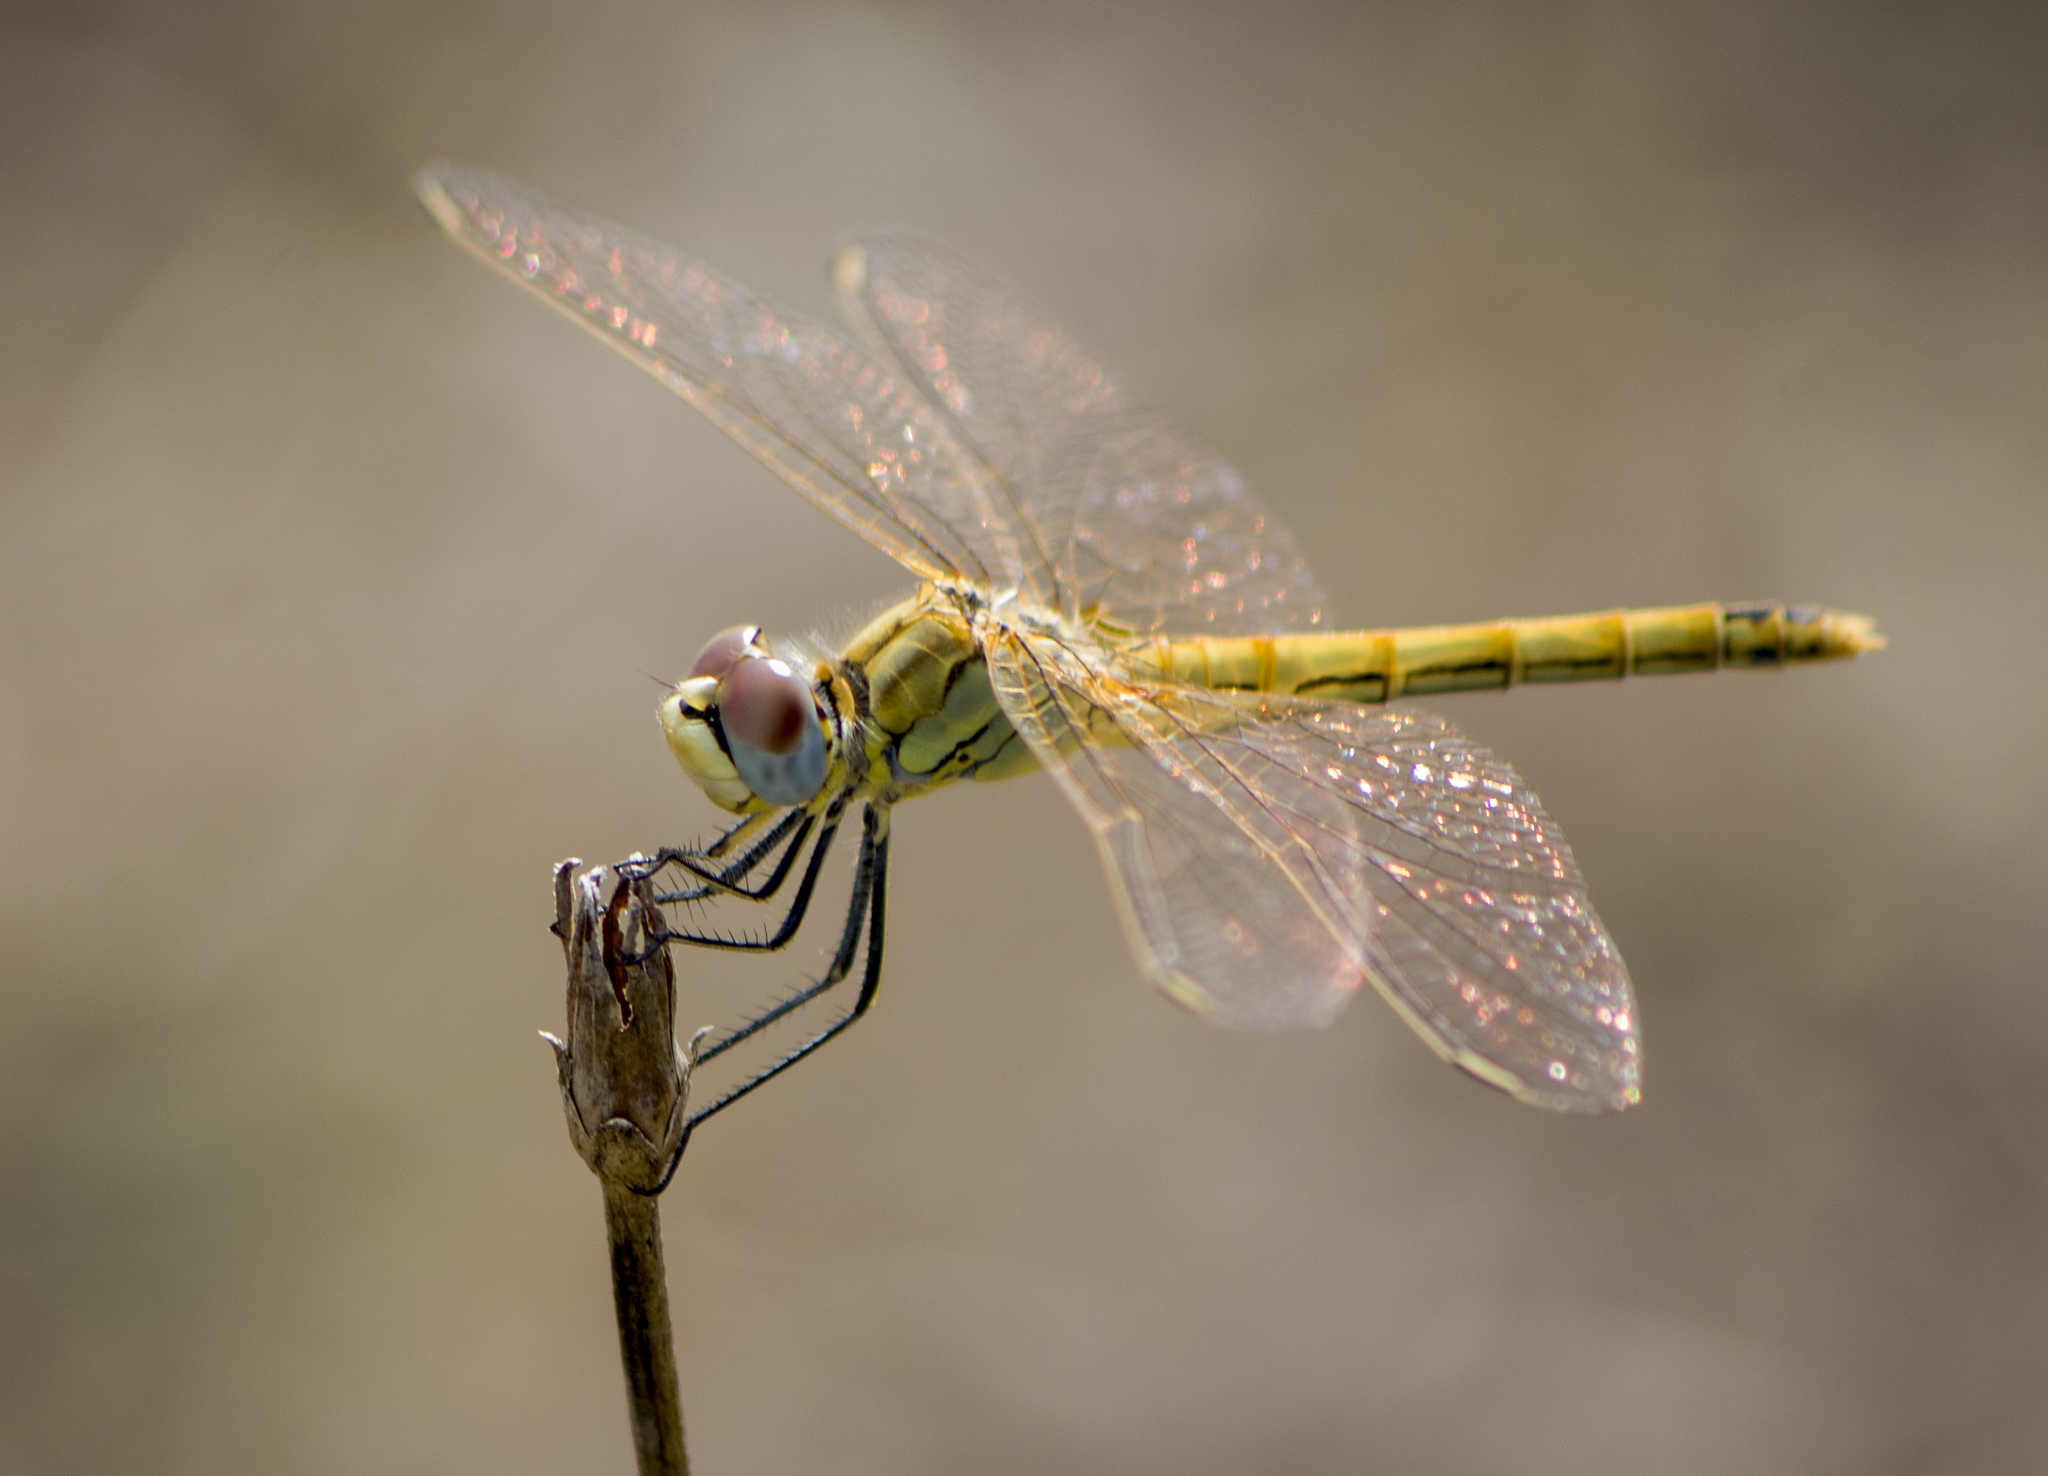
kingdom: Animalia
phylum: Arthropoda
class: Insecta
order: Odonata
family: Libellulidae
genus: Sympetrum
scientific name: Sympetrum fonscolombii
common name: Red-veined darter
